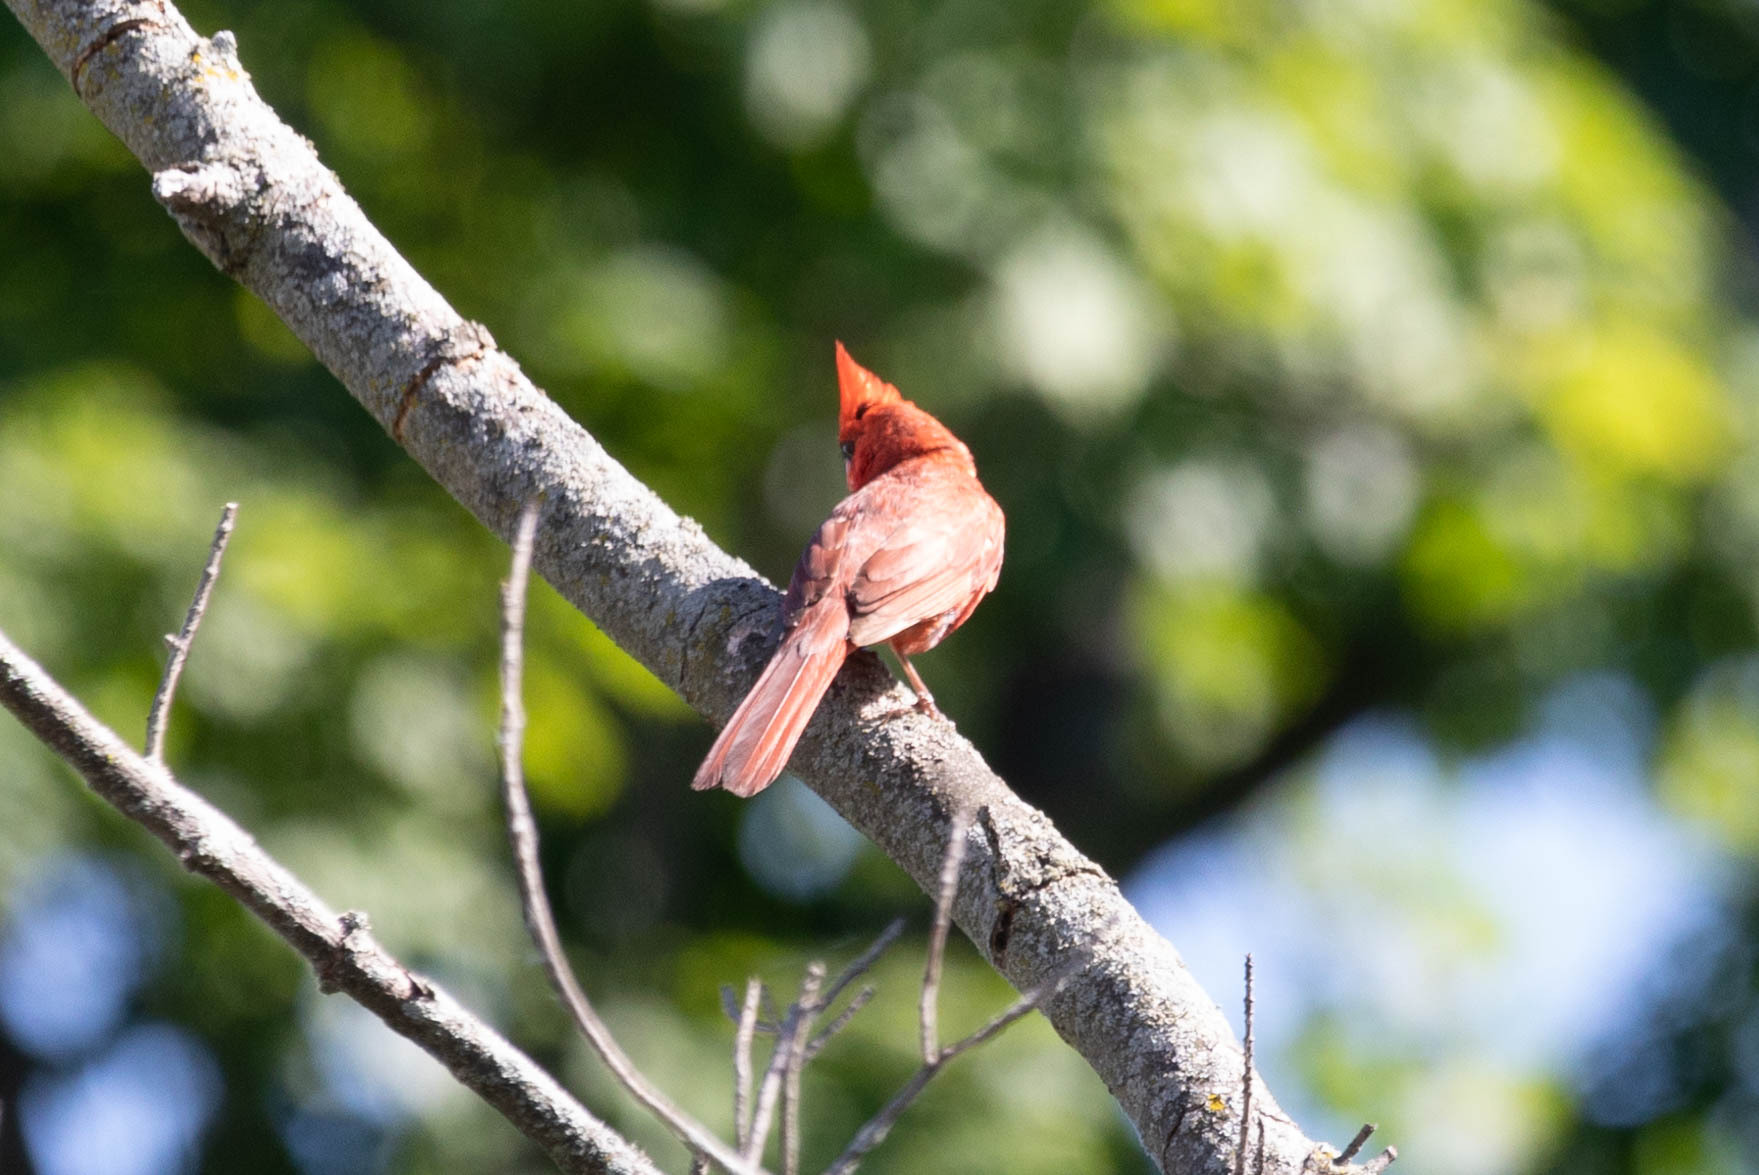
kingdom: Animalia
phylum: Chordata
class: Aves
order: Passeriformes
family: Cardinalidae
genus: Cardinalis
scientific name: Cardinalis cardinalis
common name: Northern cardinal
